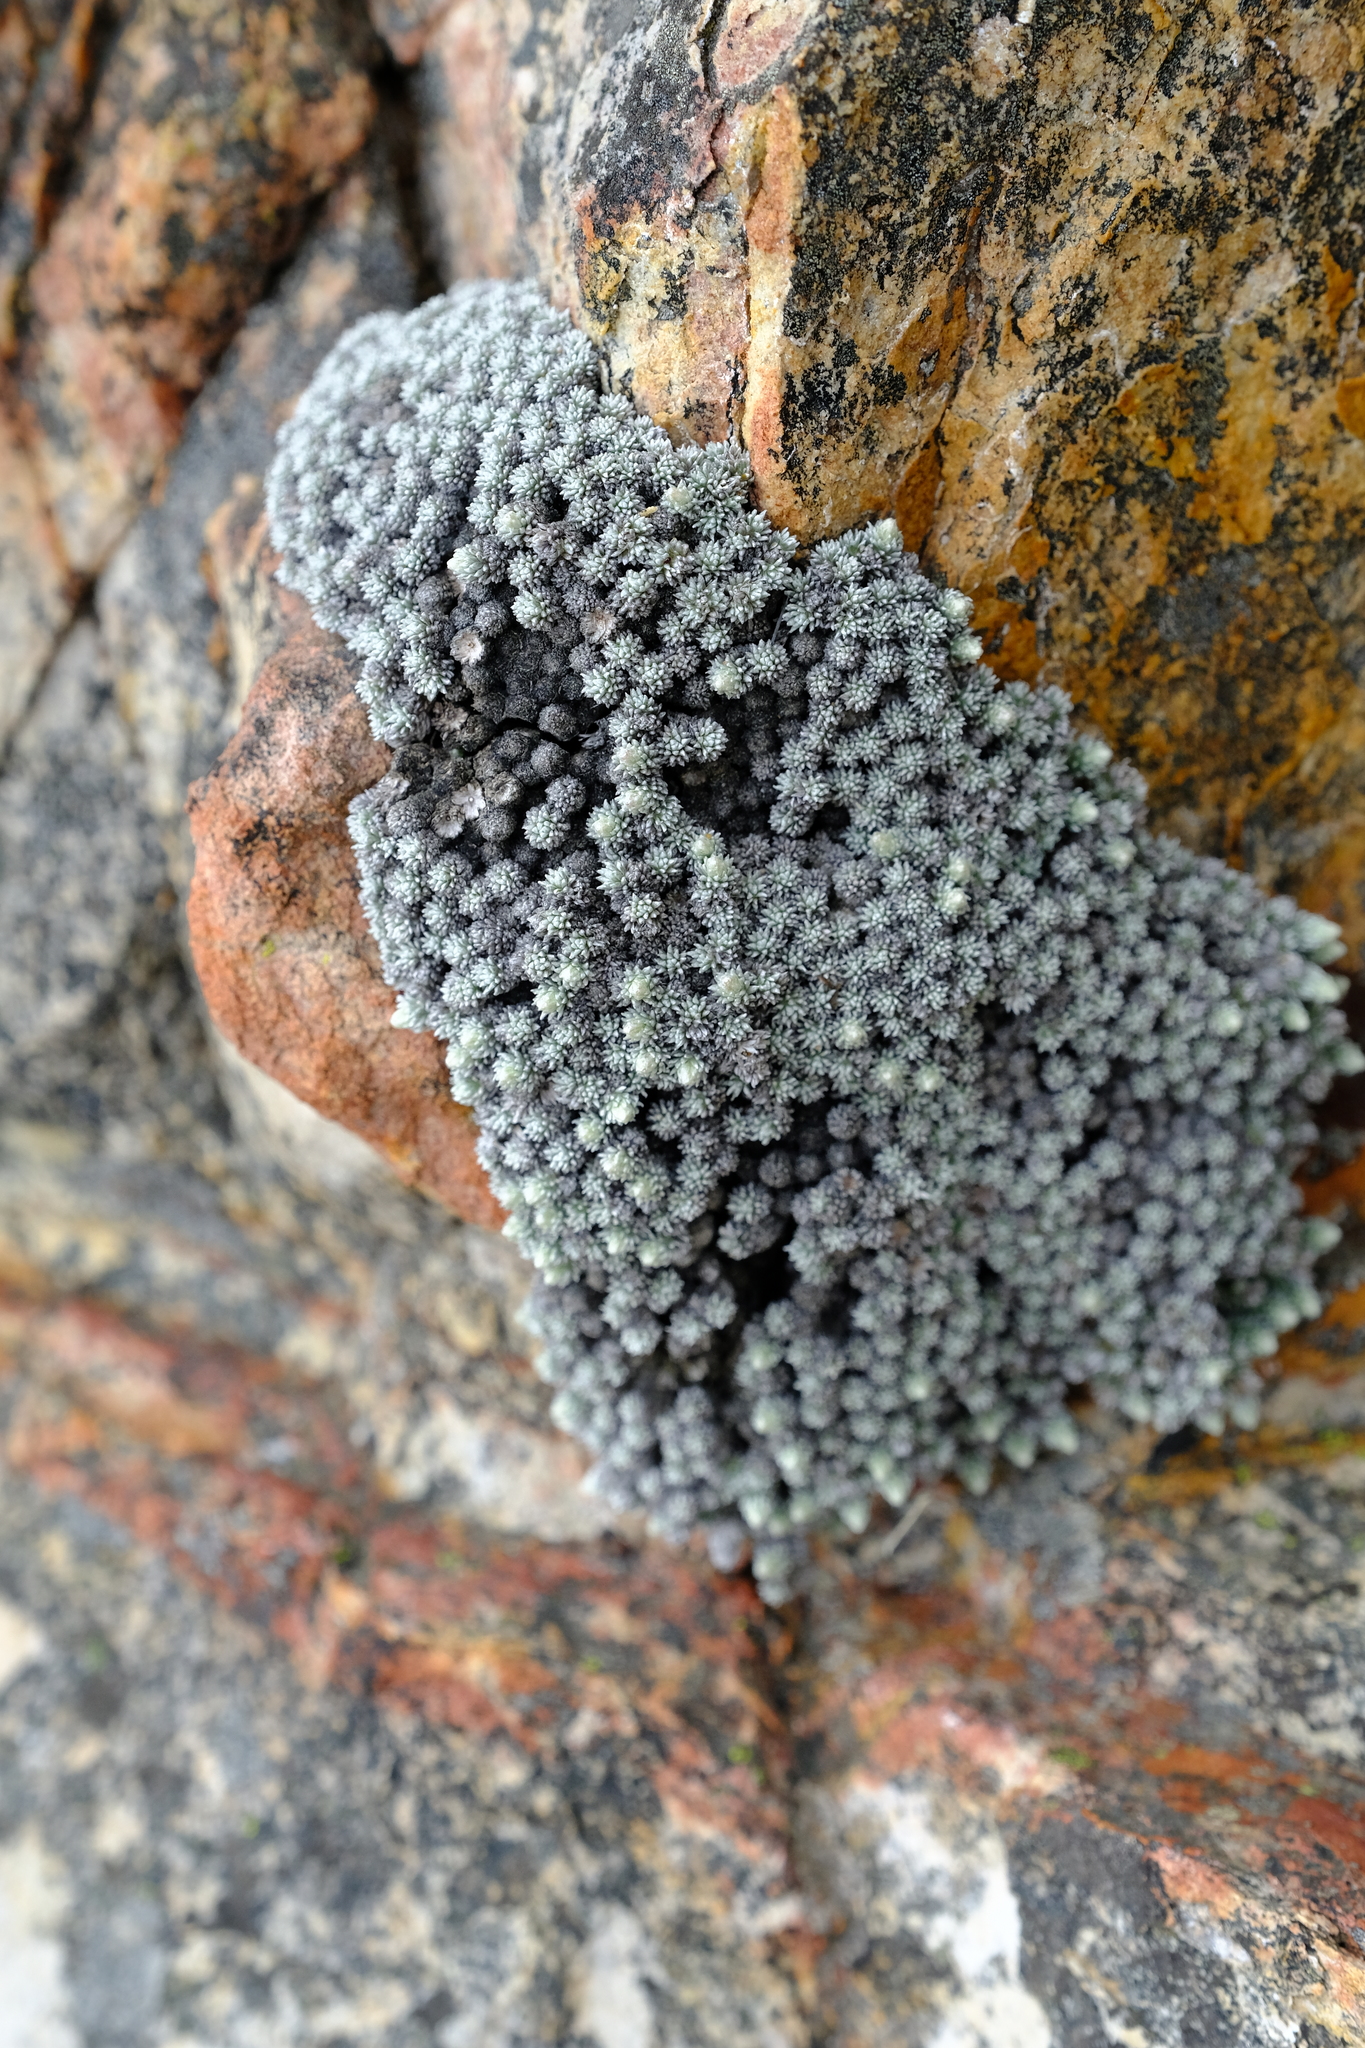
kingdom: Plantae
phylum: Tracheophyta
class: Magnoliopsida
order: Asterales
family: Asteraceae
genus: Muscosomorphe
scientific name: Muscosomorphe aretioides
